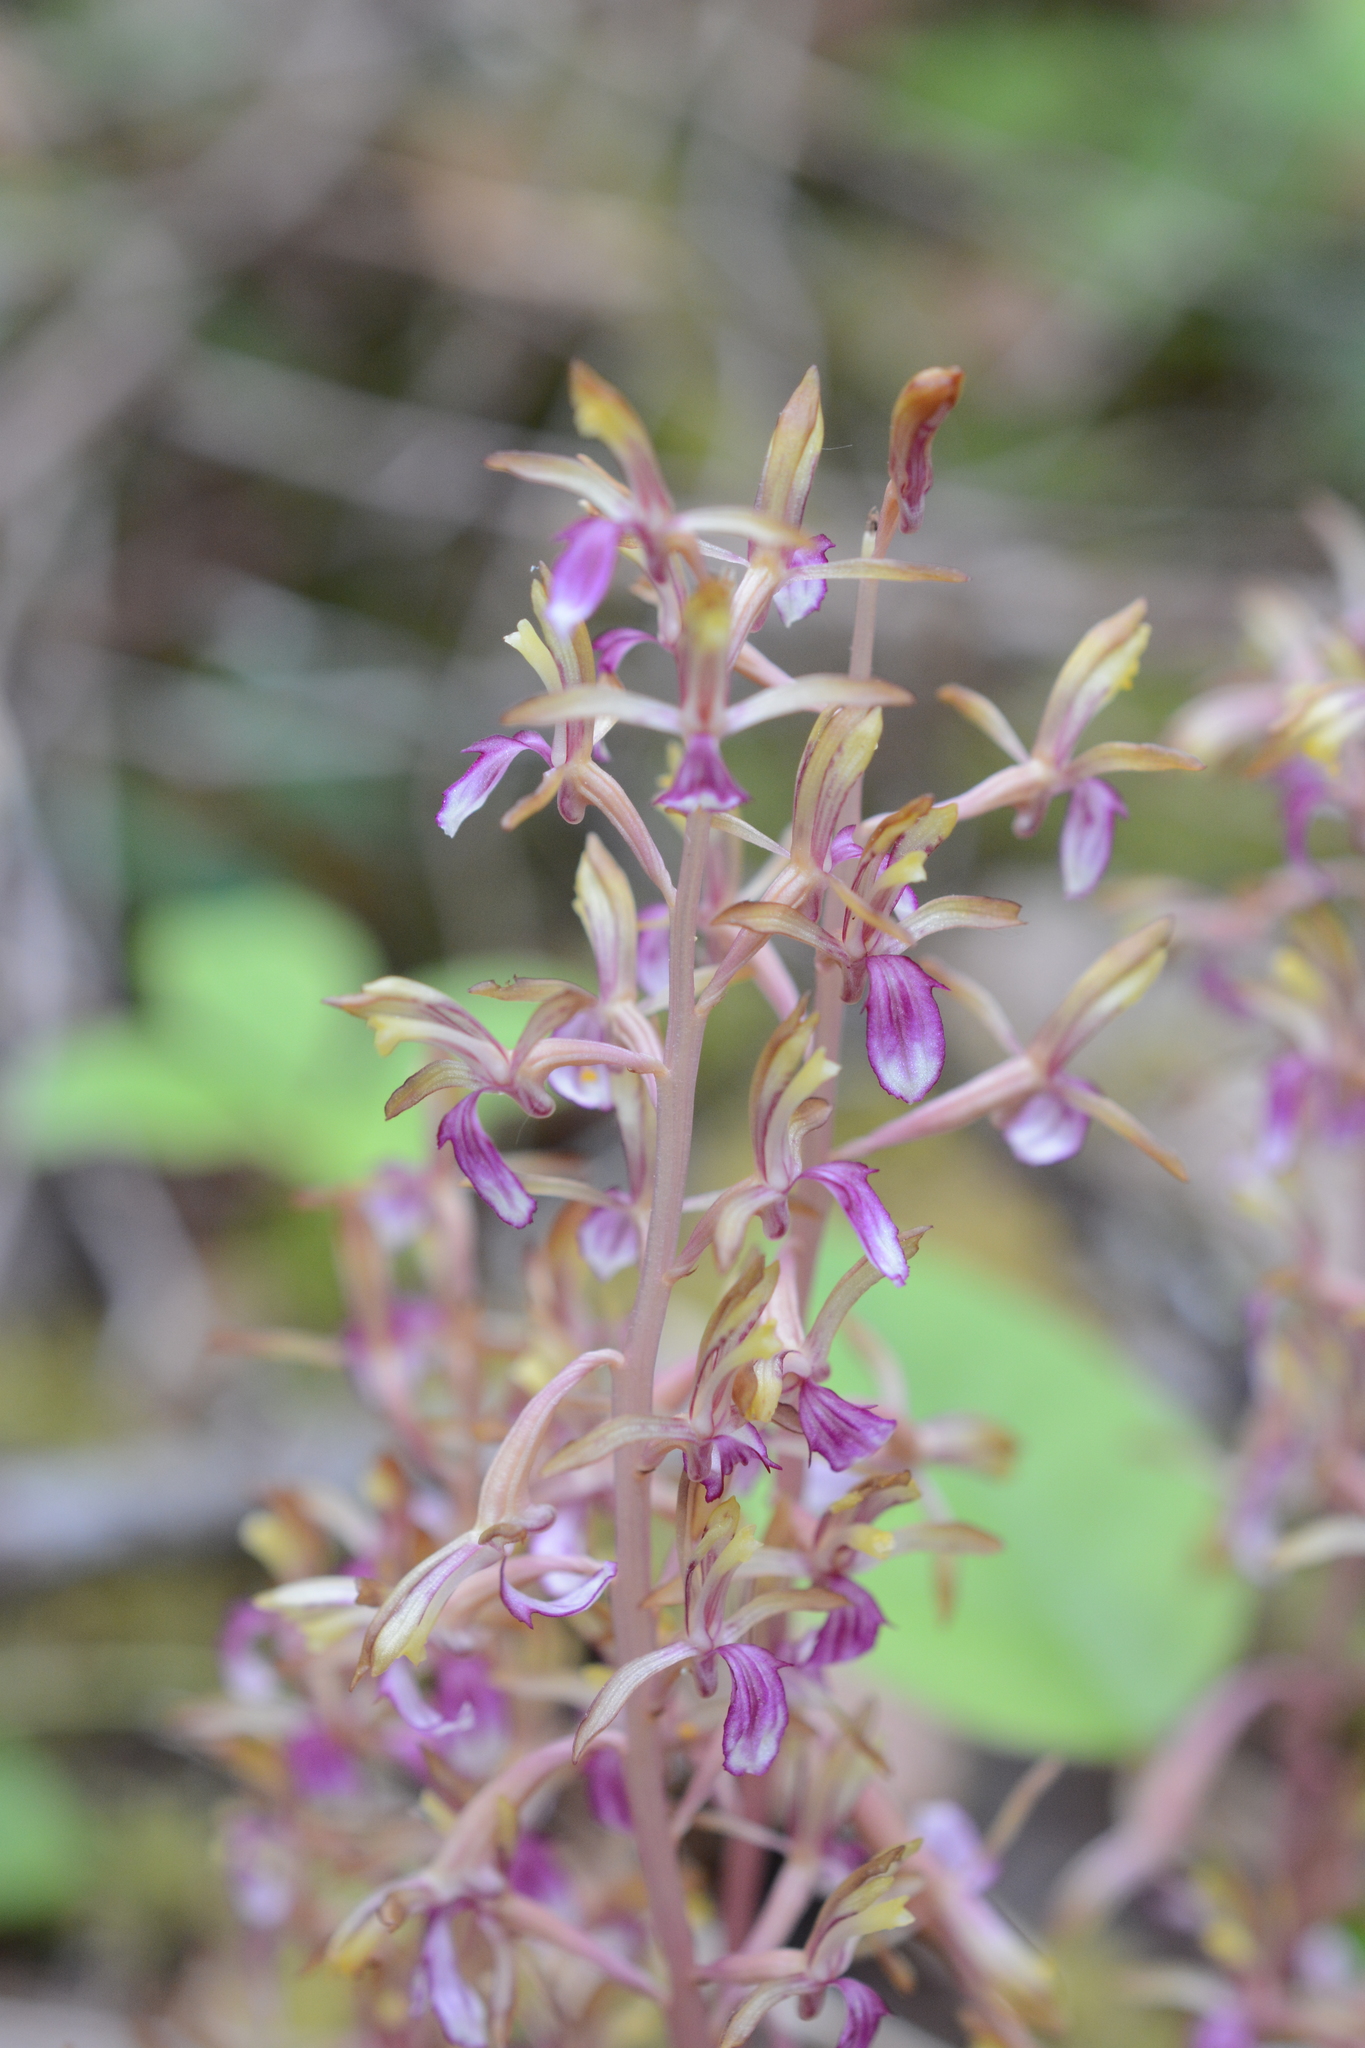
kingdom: Plantae
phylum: Tracheophyta
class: Liliopsida
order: Asparagales
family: Orchidaceae
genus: Corallorhiza
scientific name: Corallorhiza mertensiana
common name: Pacific coralroot
